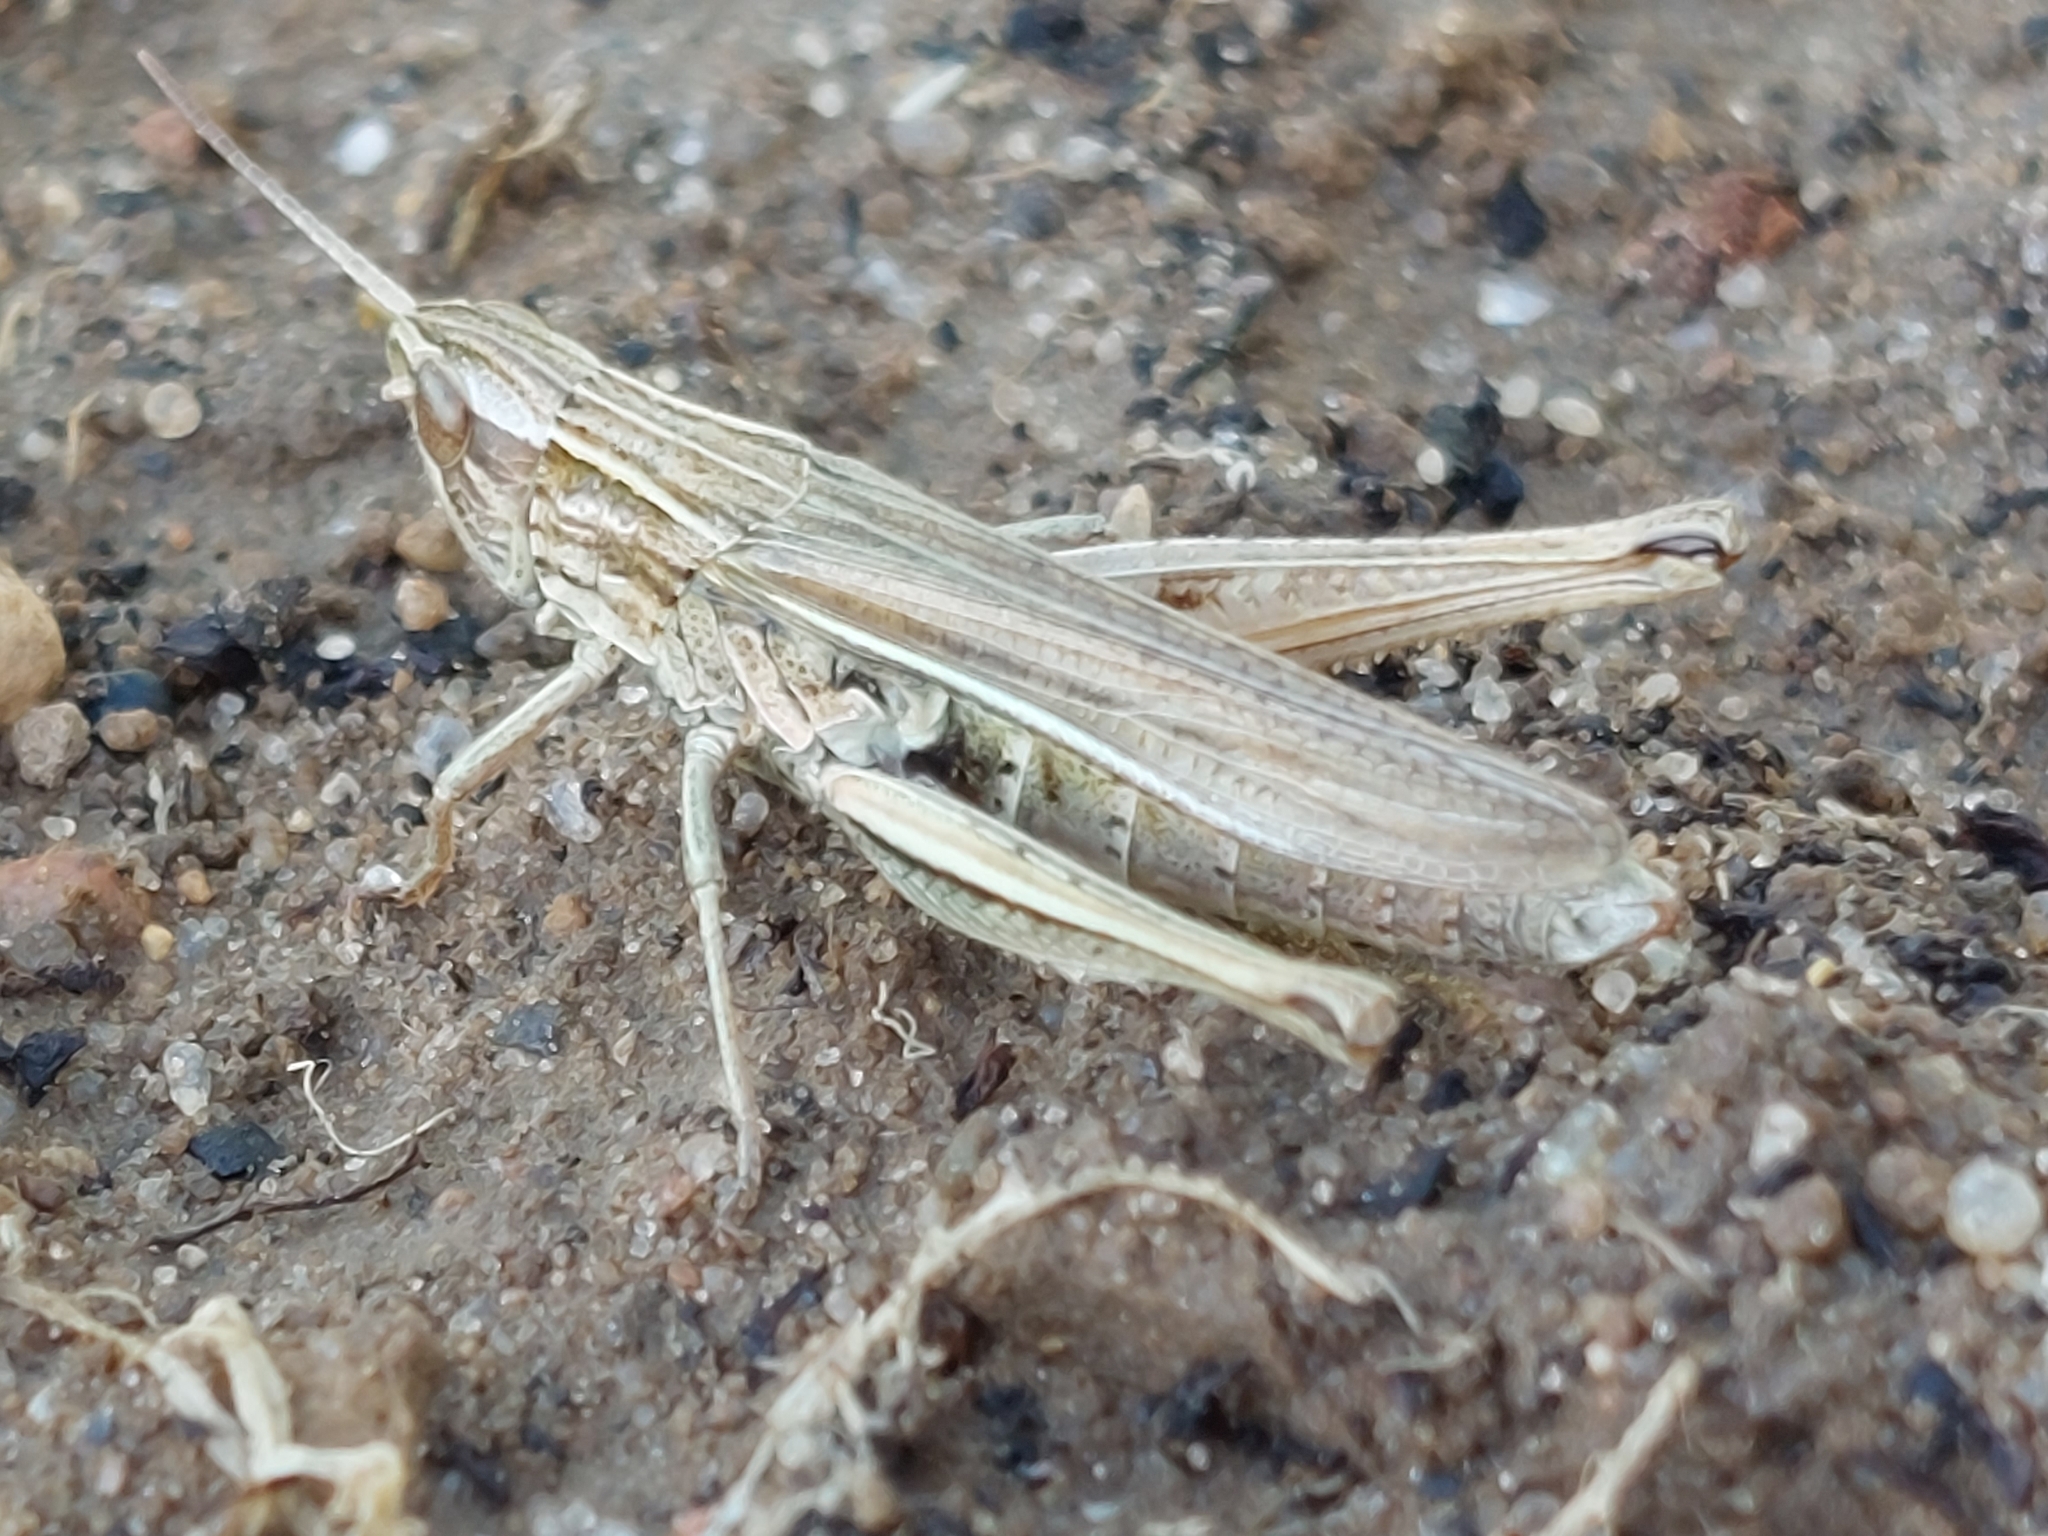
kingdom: Animalia
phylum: Arthropoda
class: Insecta
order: Orthoptera
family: Acrididae
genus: Chorthippus
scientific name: Chorthippus albomarginatus
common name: Lesser marsh grasshopper
